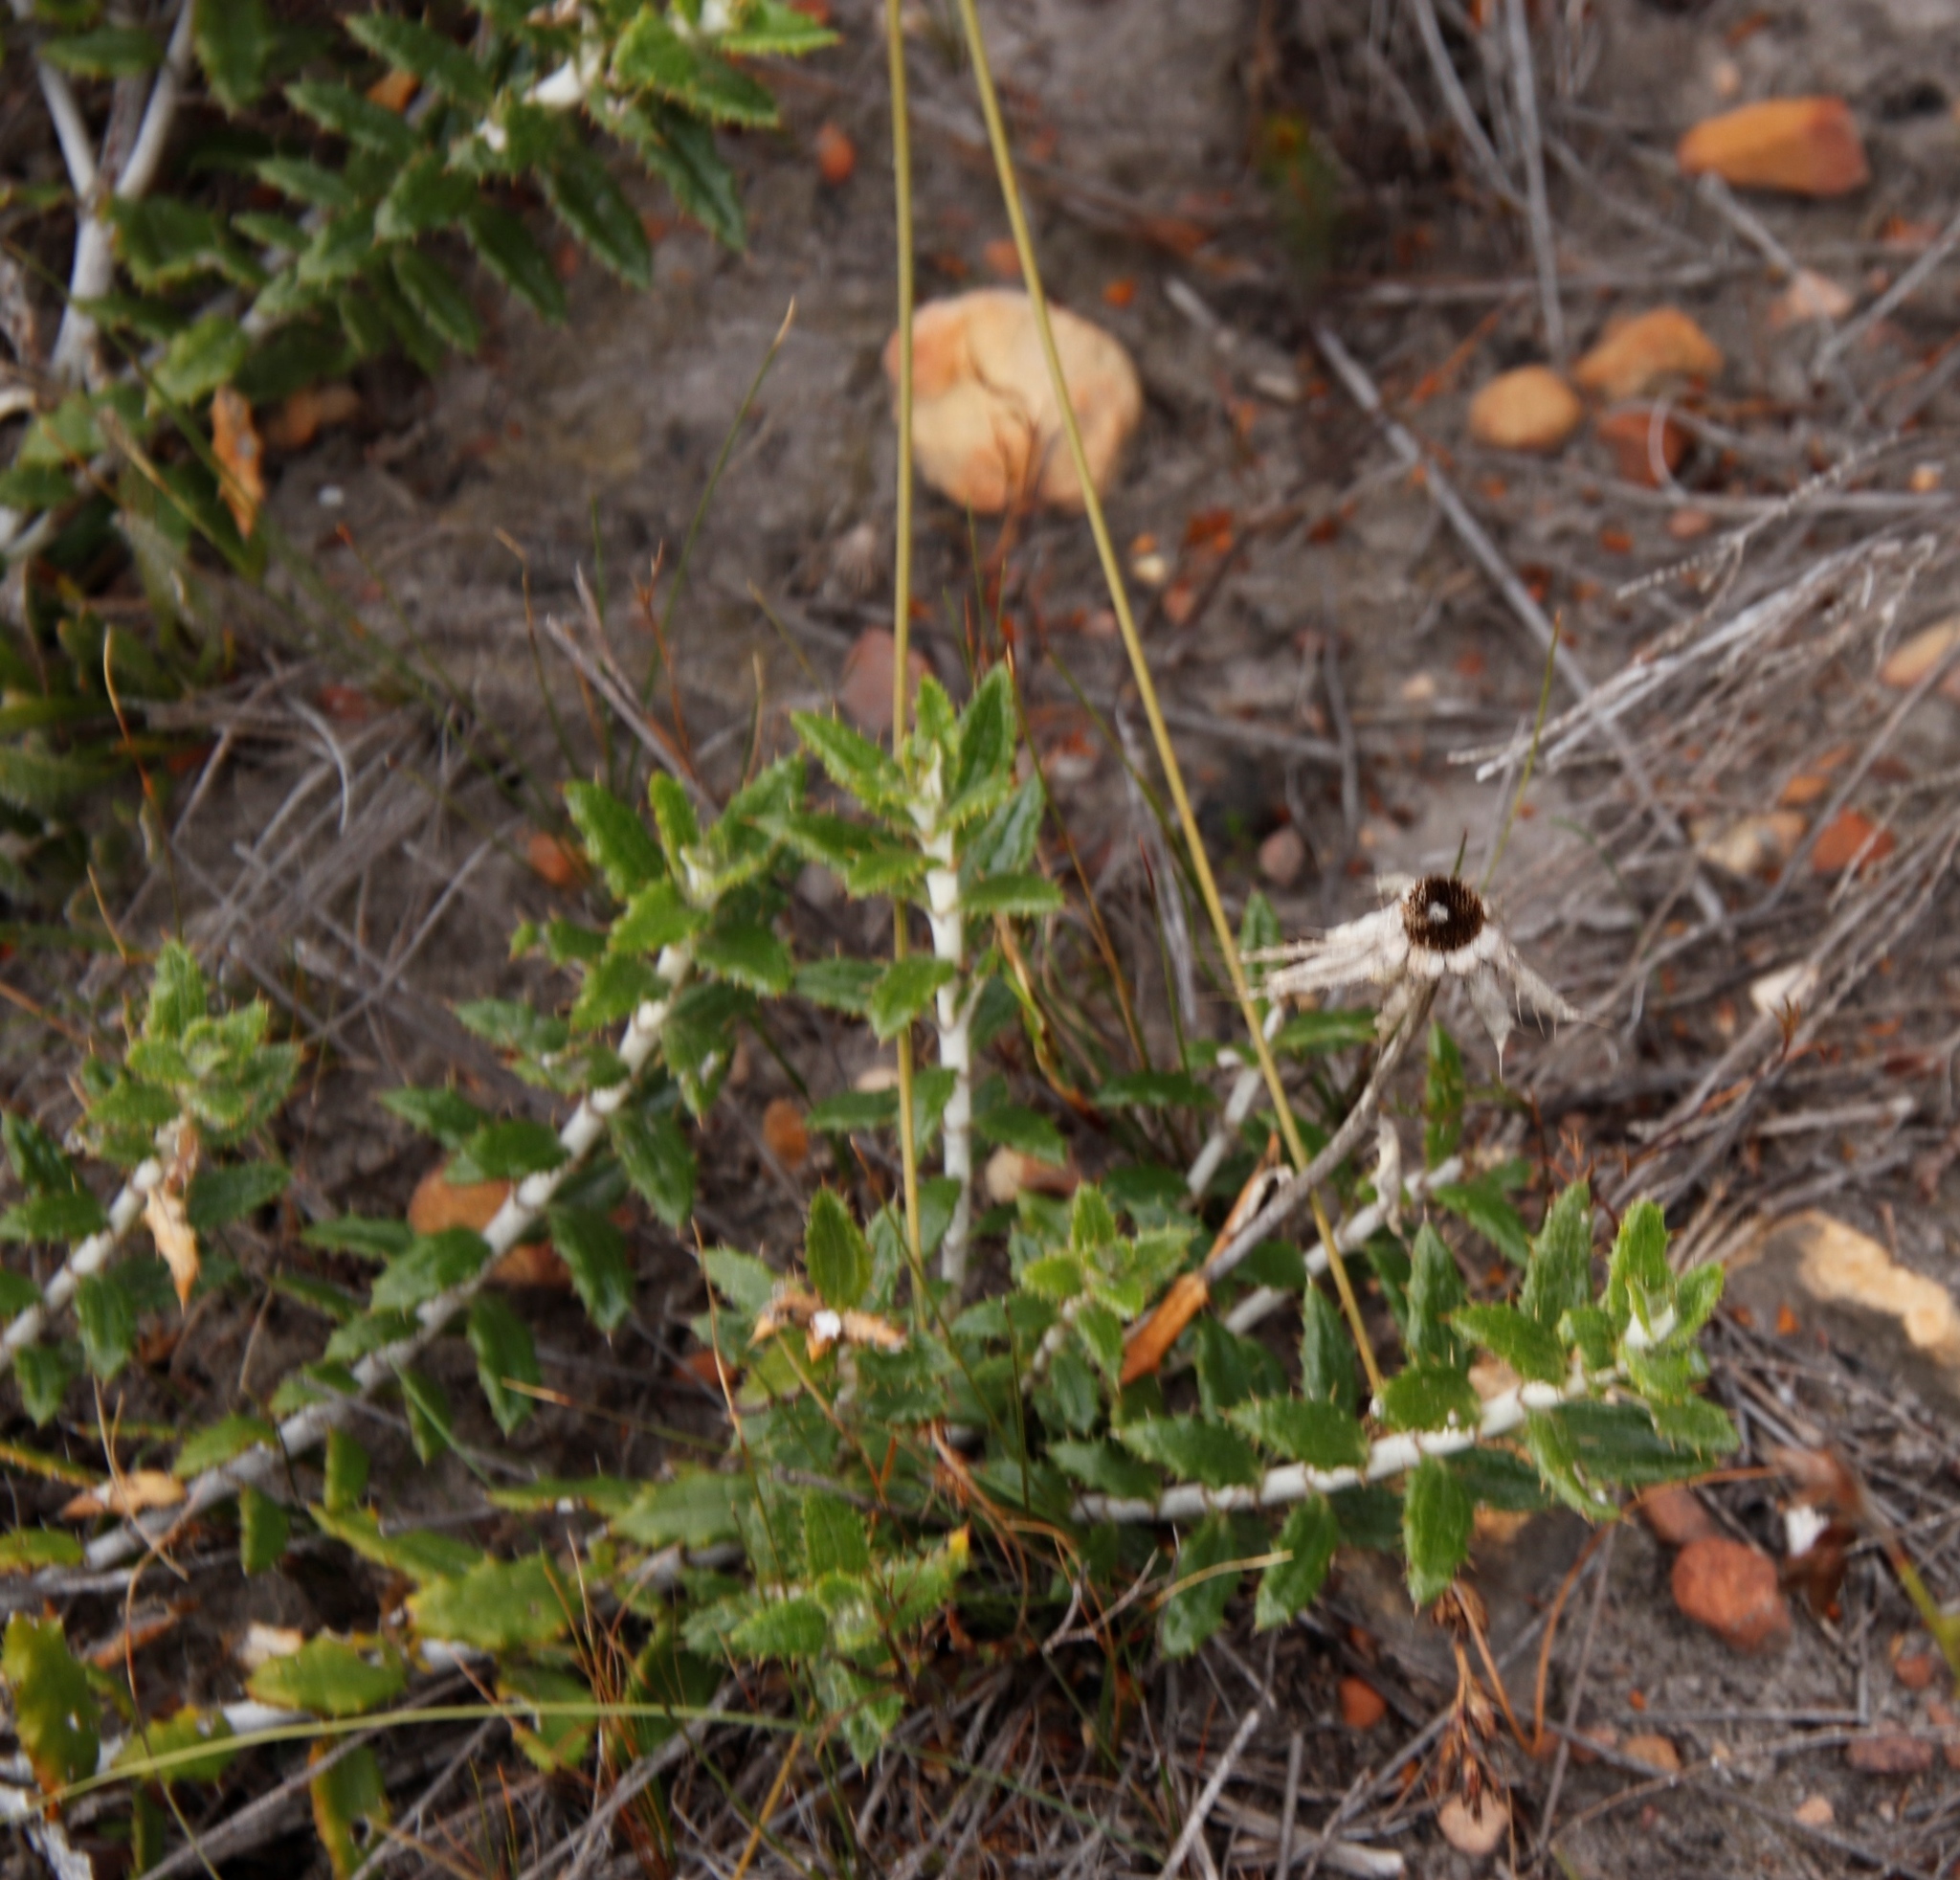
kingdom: Plantae
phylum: Tracheophyta
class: Magnoliopsida
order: Asterales
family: Asteraceae
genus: Berkheya
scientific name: Berkheya barbata
